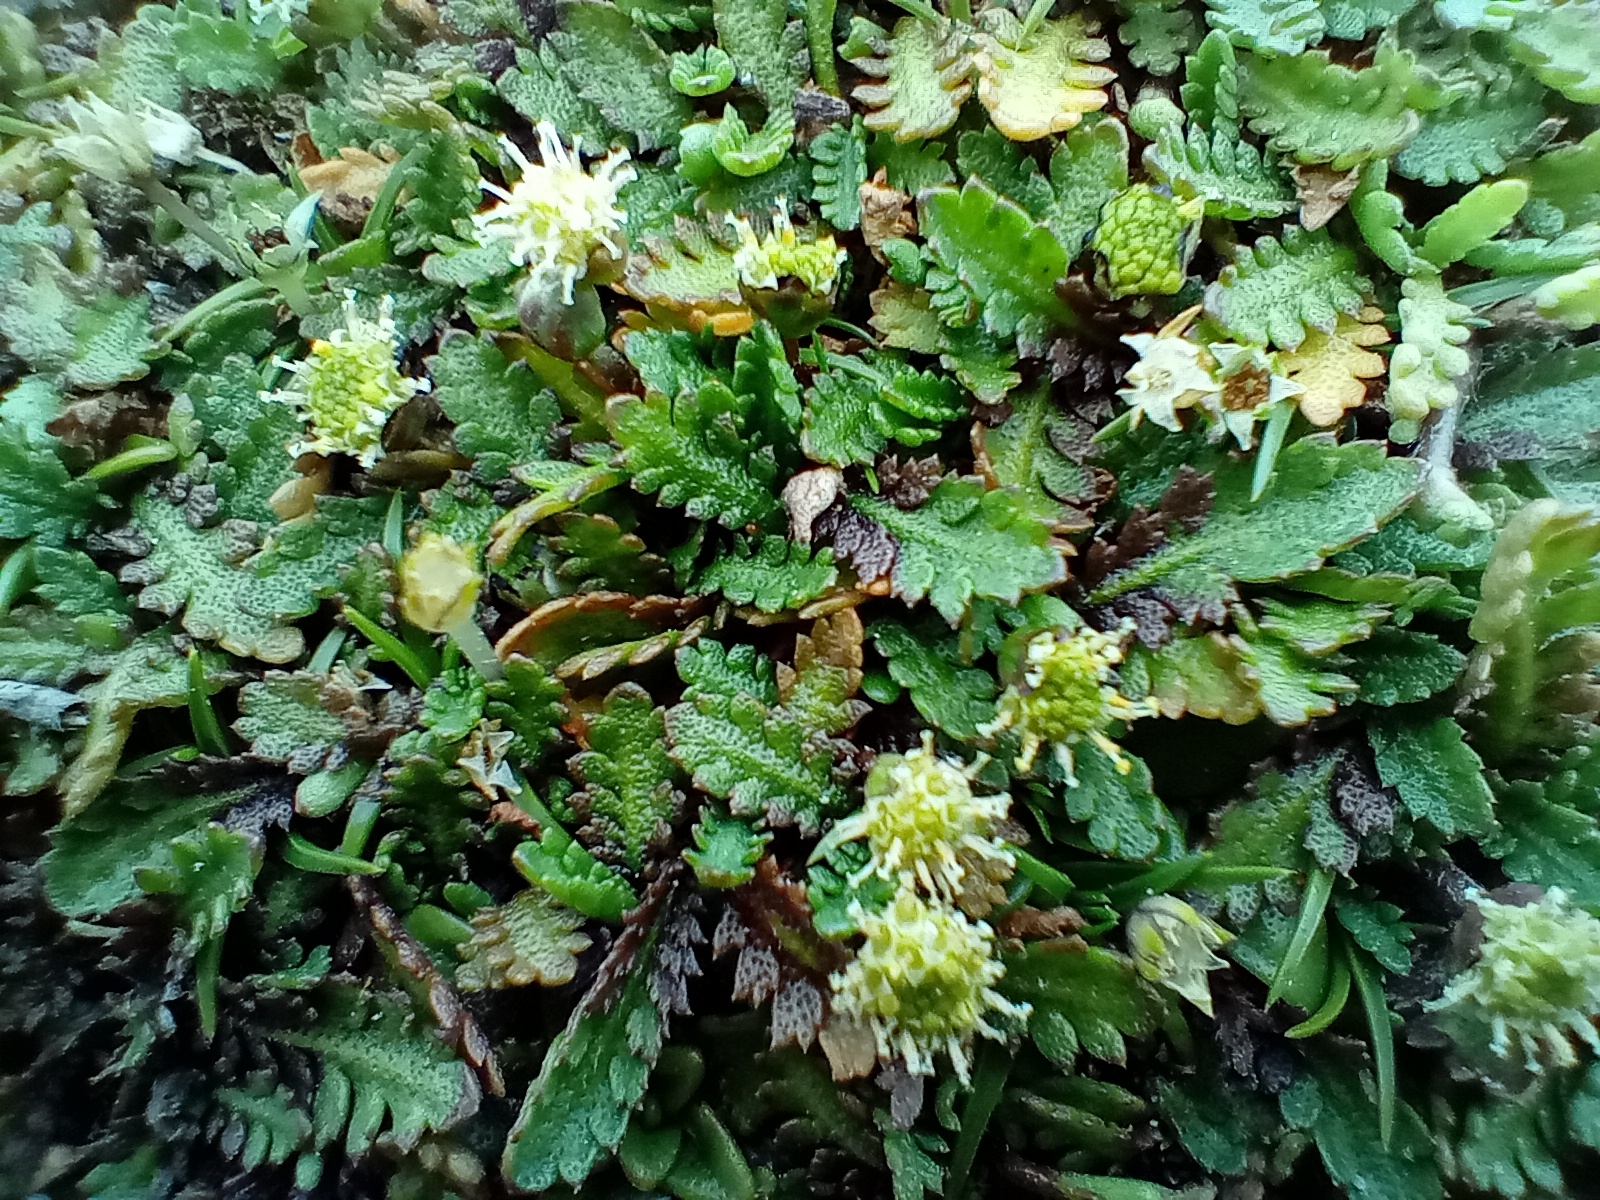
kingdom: Plantae
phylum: Tracheophyta
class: Magnoliopsida
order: Asterales
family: Asteraceae
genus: Leptinella
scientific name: Leptinella dioica
